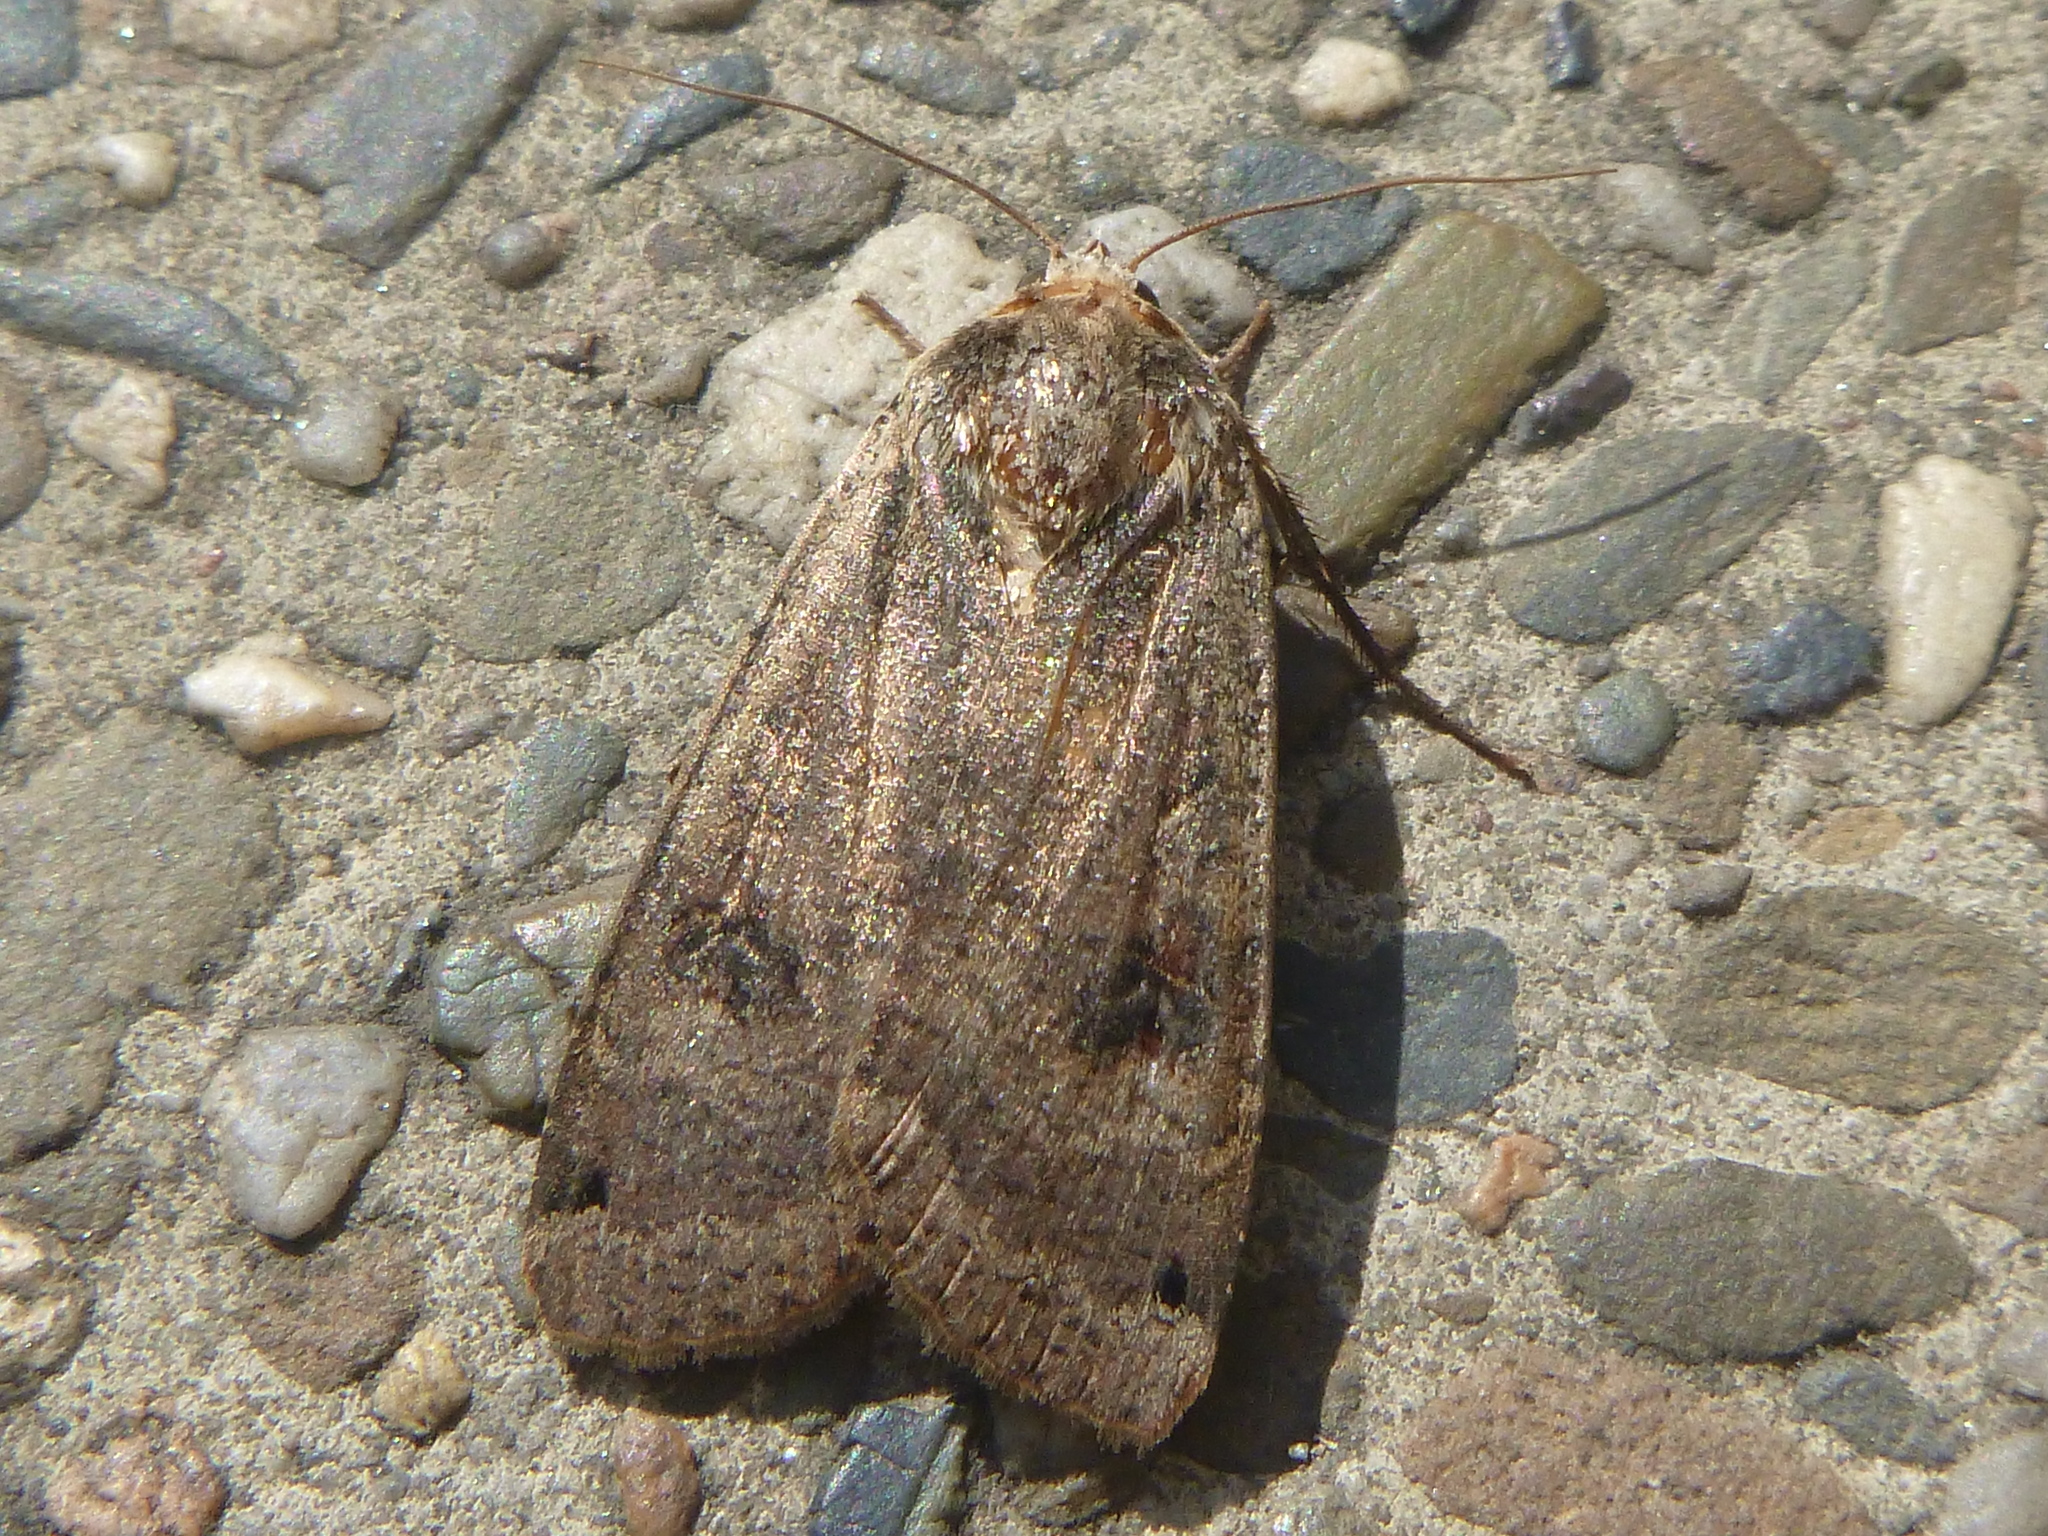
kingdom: Animalia
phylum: Arthropoda
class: Insecta
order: Lepidoptera
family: Noctuidae
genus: Noctua
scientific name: Noctua pronuba
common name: Large yellow underwing
